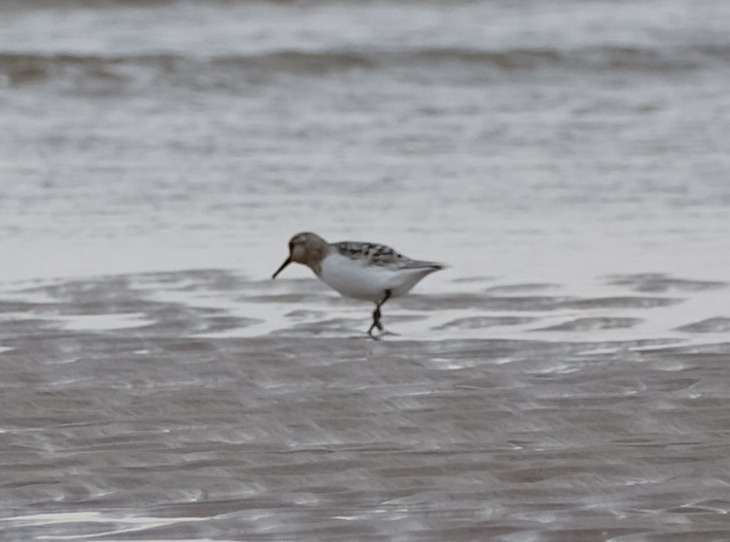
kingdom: Animalia
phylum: Chordata
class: Aves
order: Charadriiformes
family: Scolopacidae
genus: Calidris
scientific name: Calidris alba
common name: Sanderling
